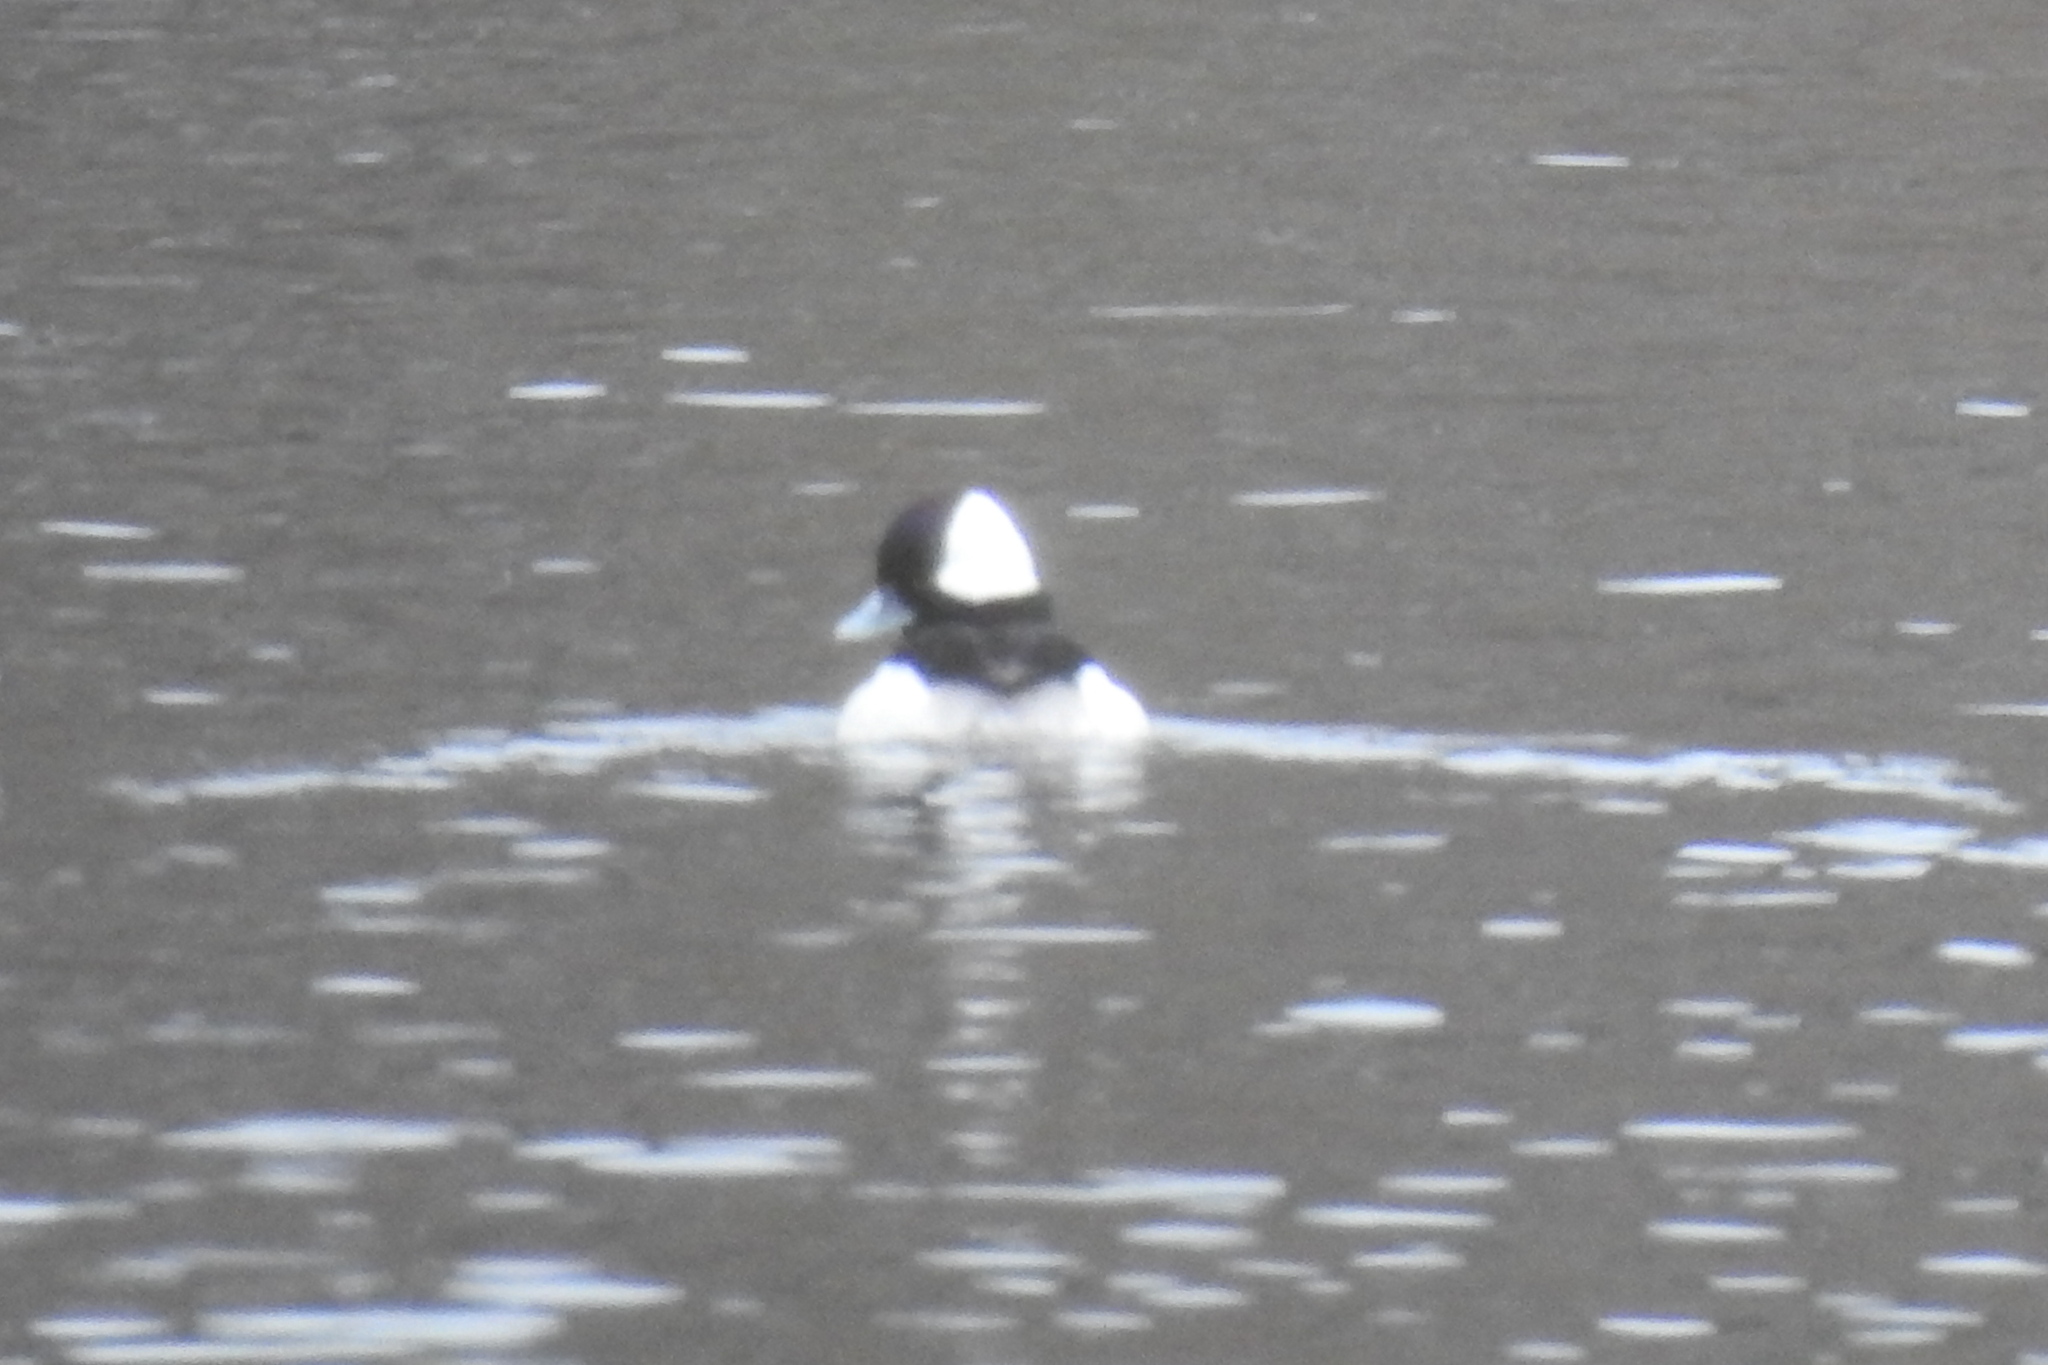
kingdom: Animalia
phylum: Chordata
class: Aves
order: Anseriformes
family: Anatidae
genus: Bucephala
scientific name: Bucephala albeola
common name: Bufflehead
